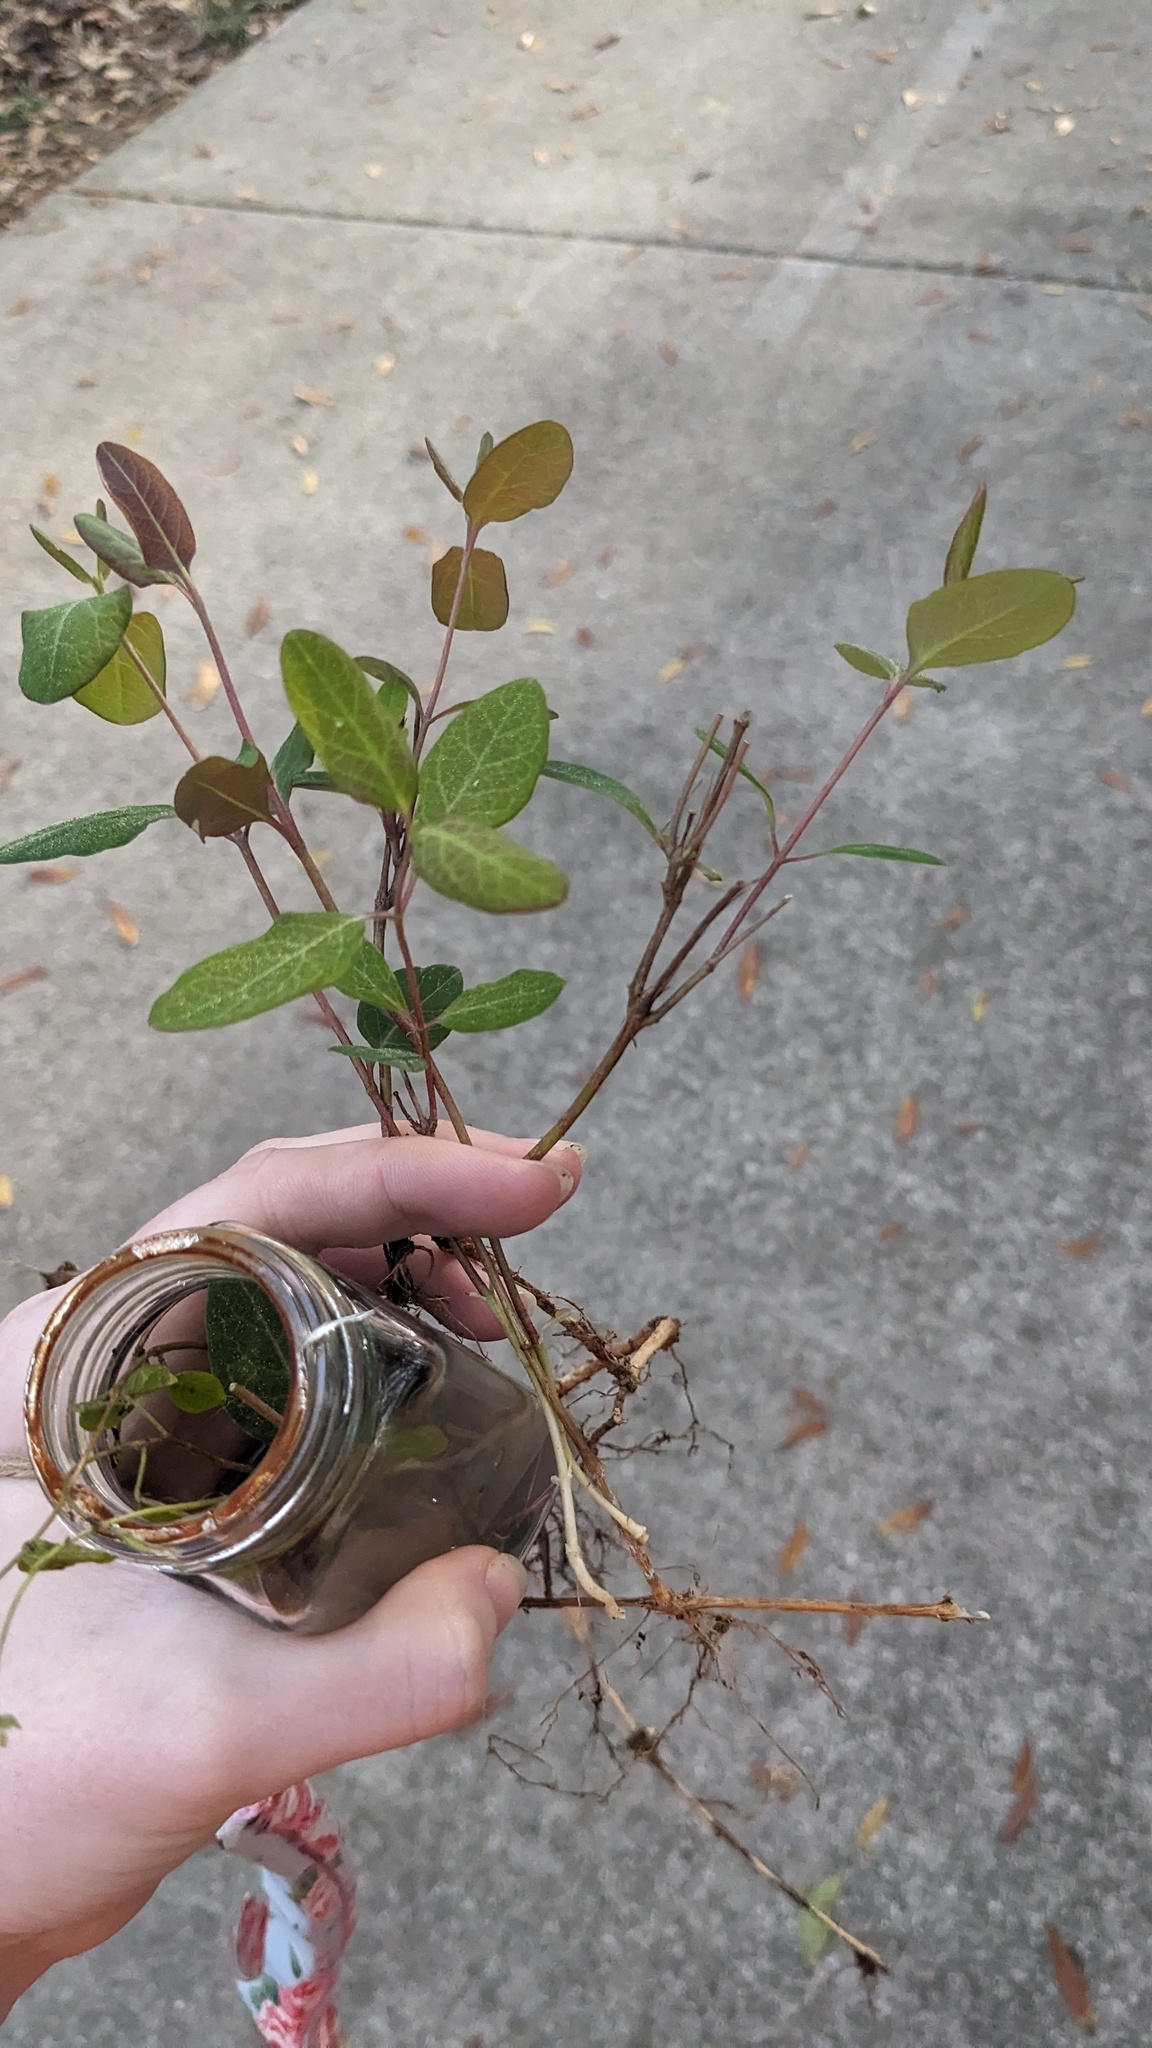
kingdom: Plantae
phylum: Tracheophyta
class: Magnoliopsida
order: Dipsacales
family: Caprifoliaceae
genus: Lonicera
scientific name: Lonicera sempervirens
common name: Coral honeysuckle
